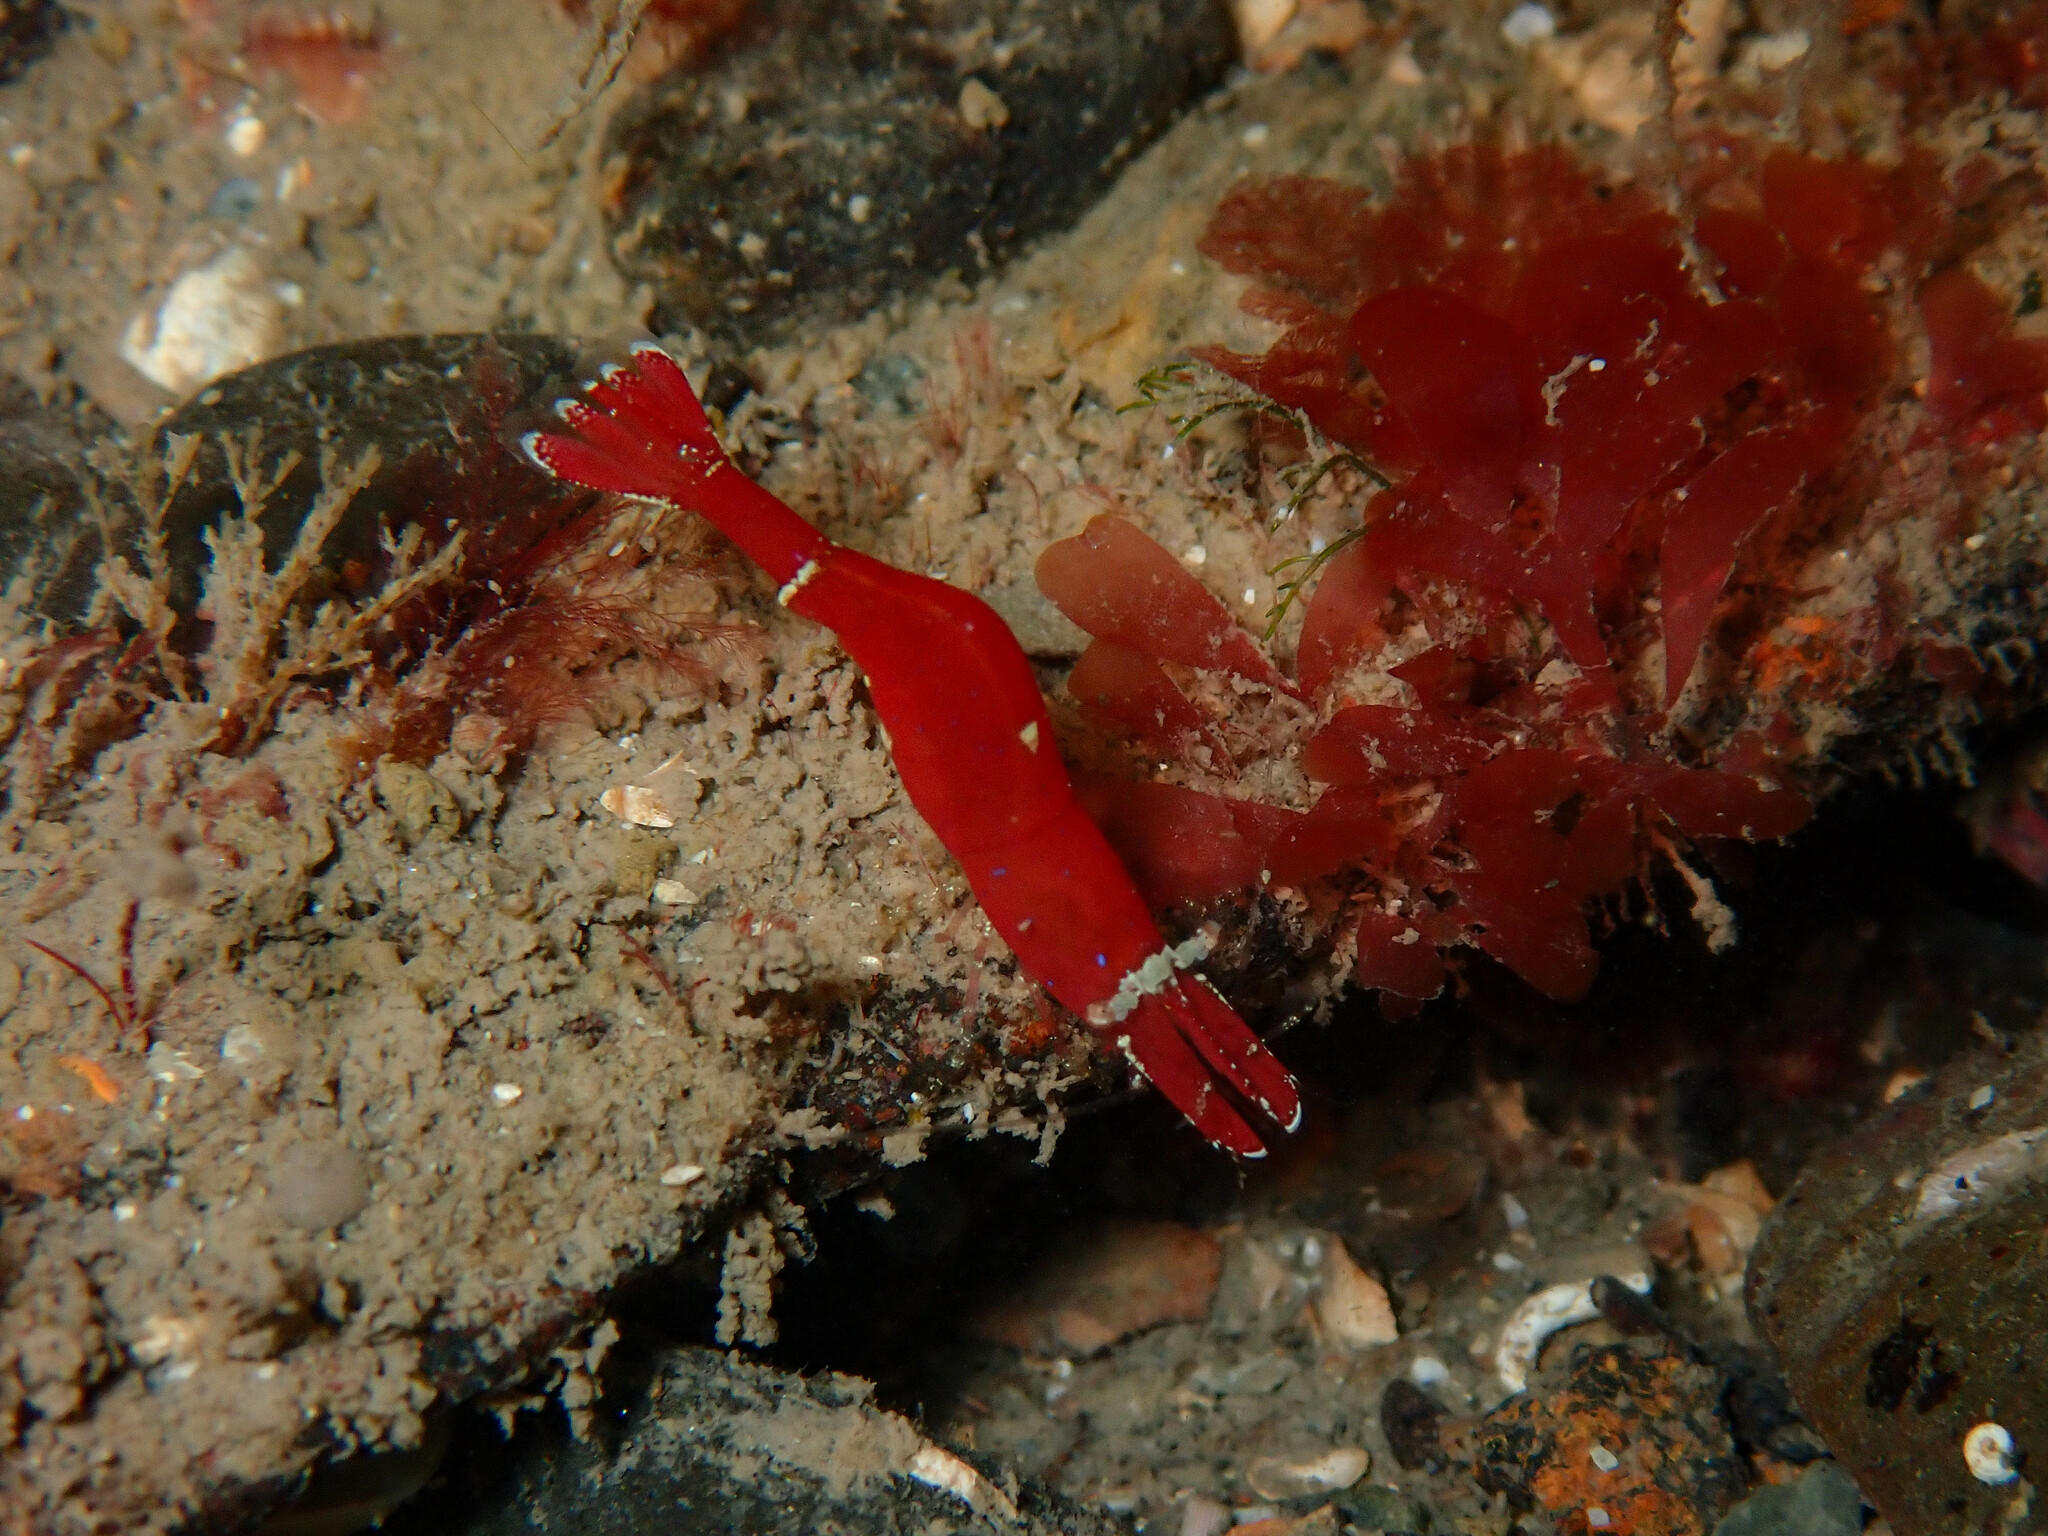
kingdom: Animalia
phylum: Arthropoda
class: Malacostraca
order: Decapoda
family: Hippolytidae
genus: Hippolyte
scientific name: Hippolyte varians
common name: Chamaeleon prawn
